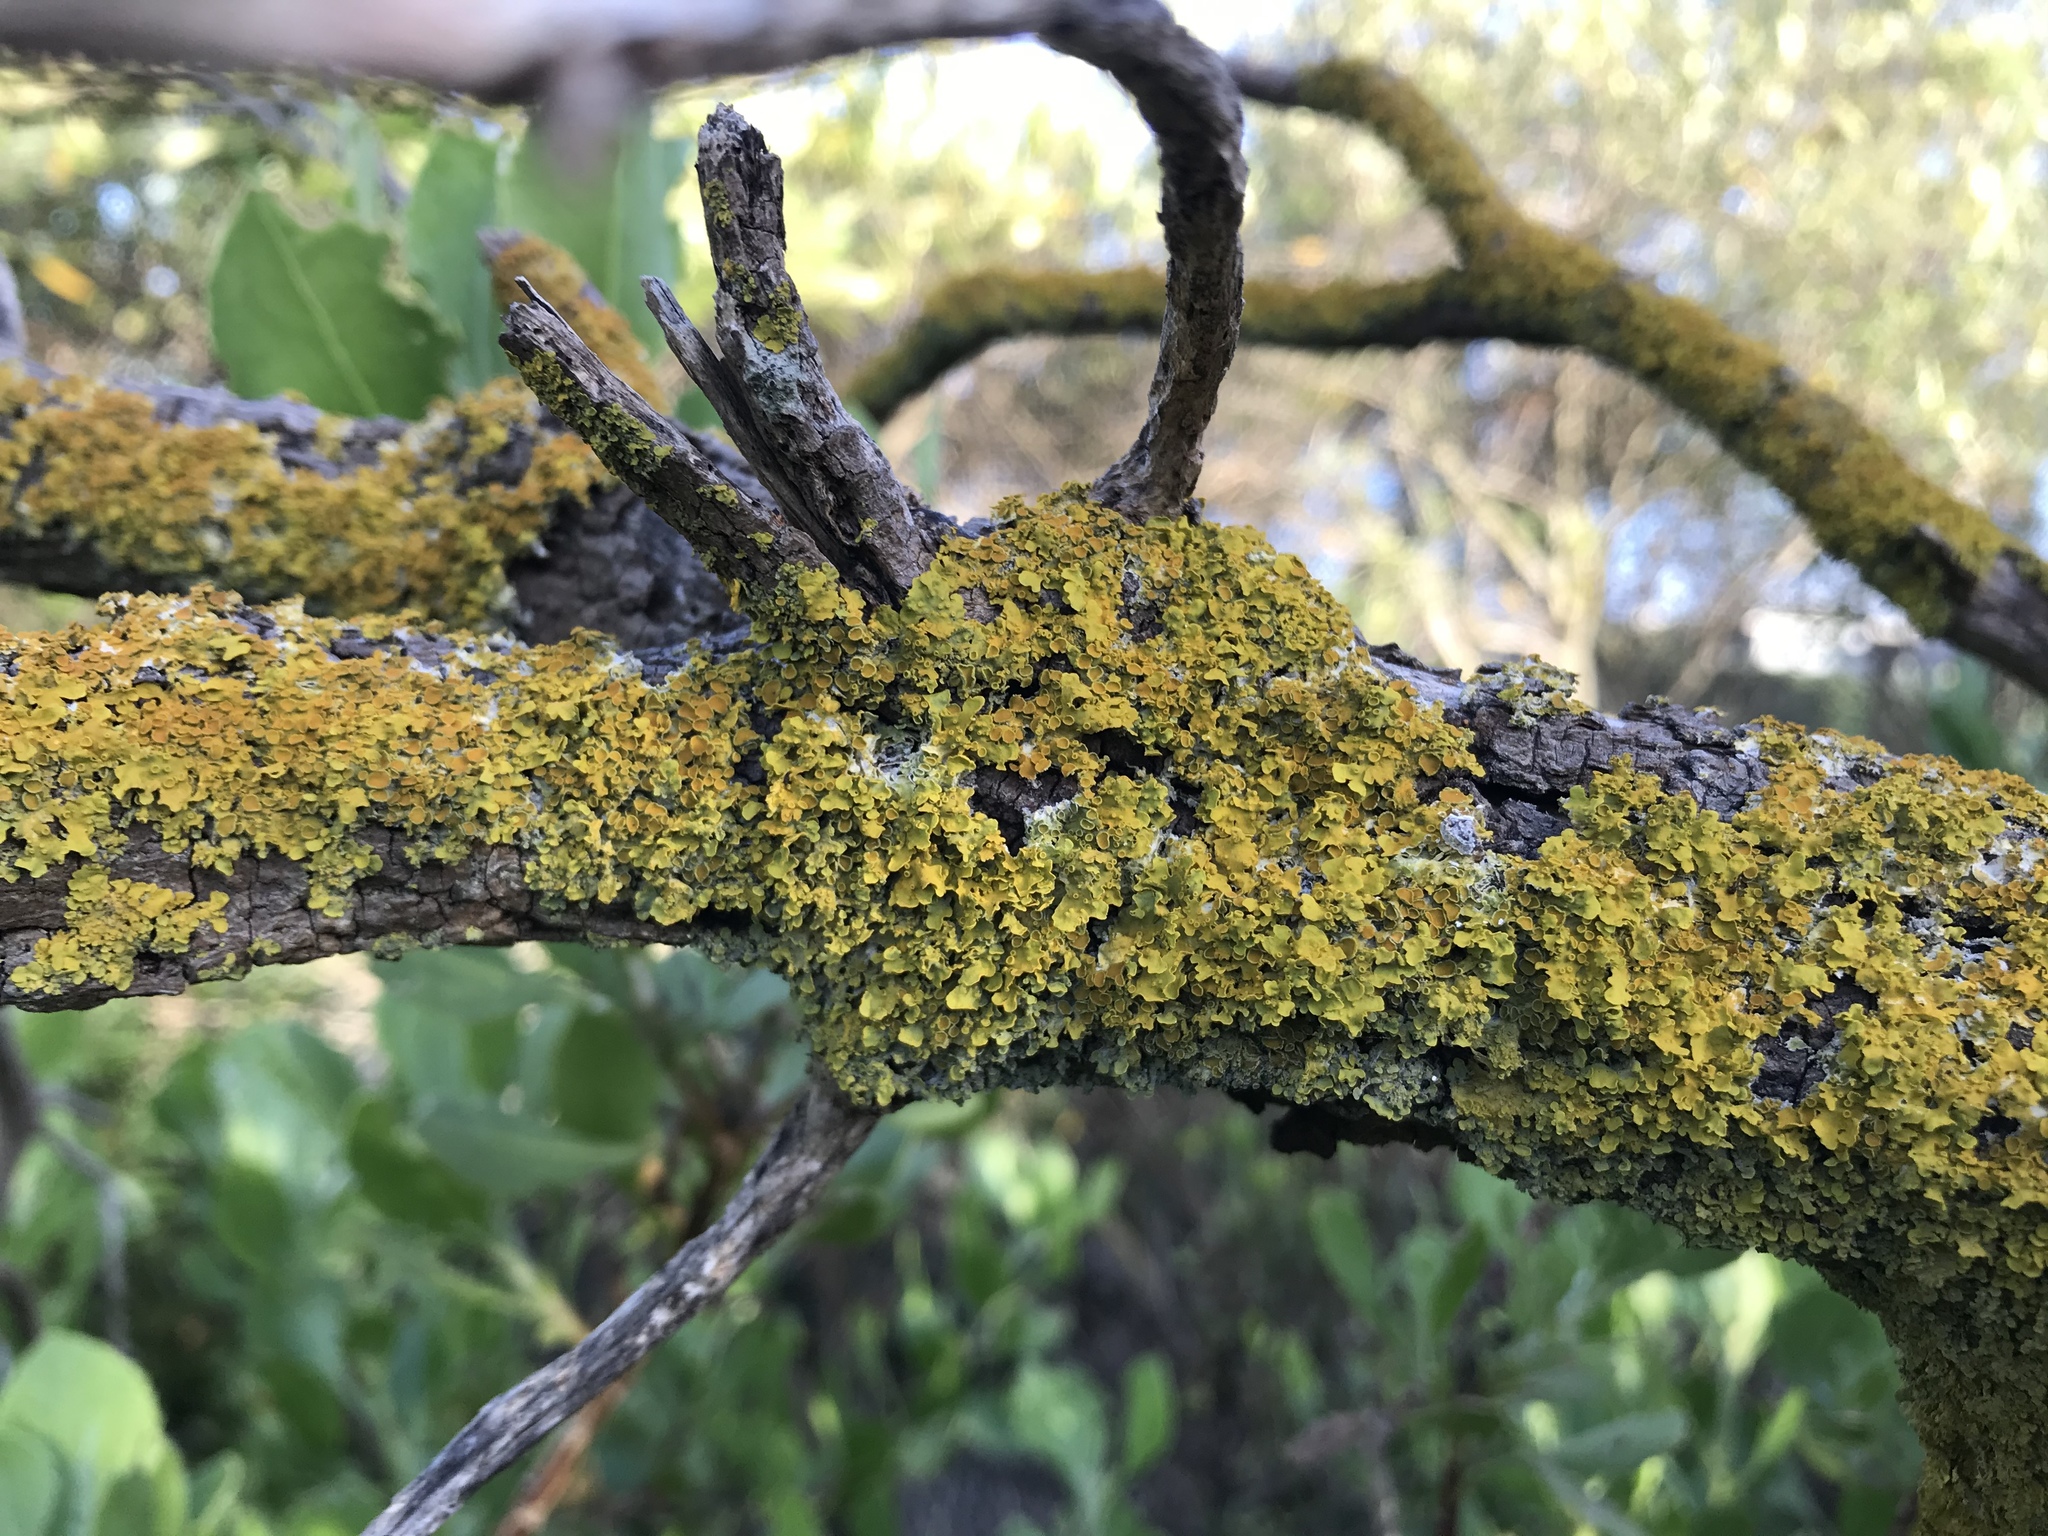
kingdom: Fungi
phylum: Ascomycota
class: Lecanoromycetes
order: Teloschistales
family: Teloschistaceae
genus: Xanthoria
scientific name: Xanthoria parietina
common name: Common orange lichen
